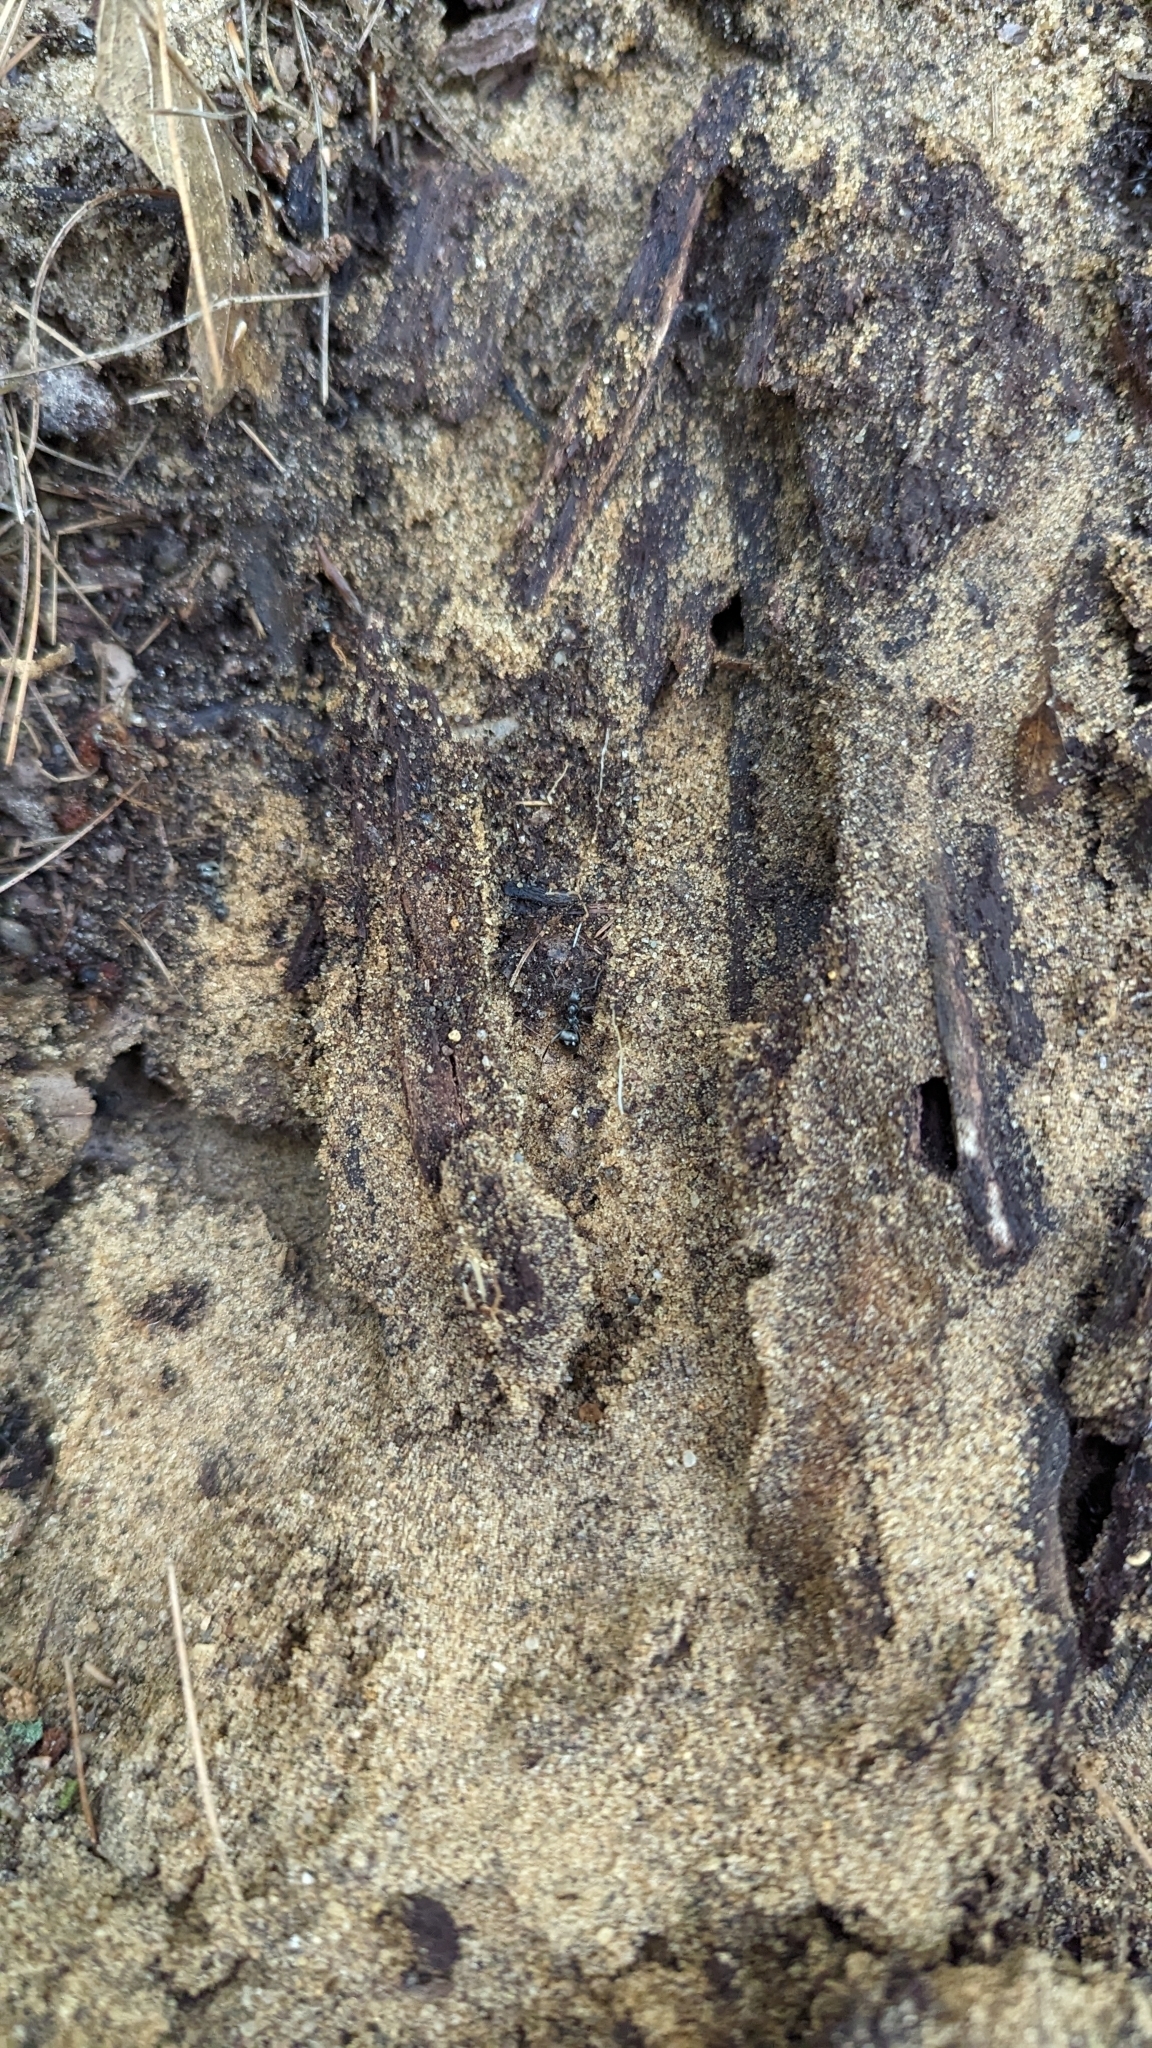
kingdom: Animalia
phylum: Arthropoda
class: Insecta
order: Hymenoptera
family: Formicidae
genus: Formica
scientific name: Formica subsericea
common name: Silky field ant
